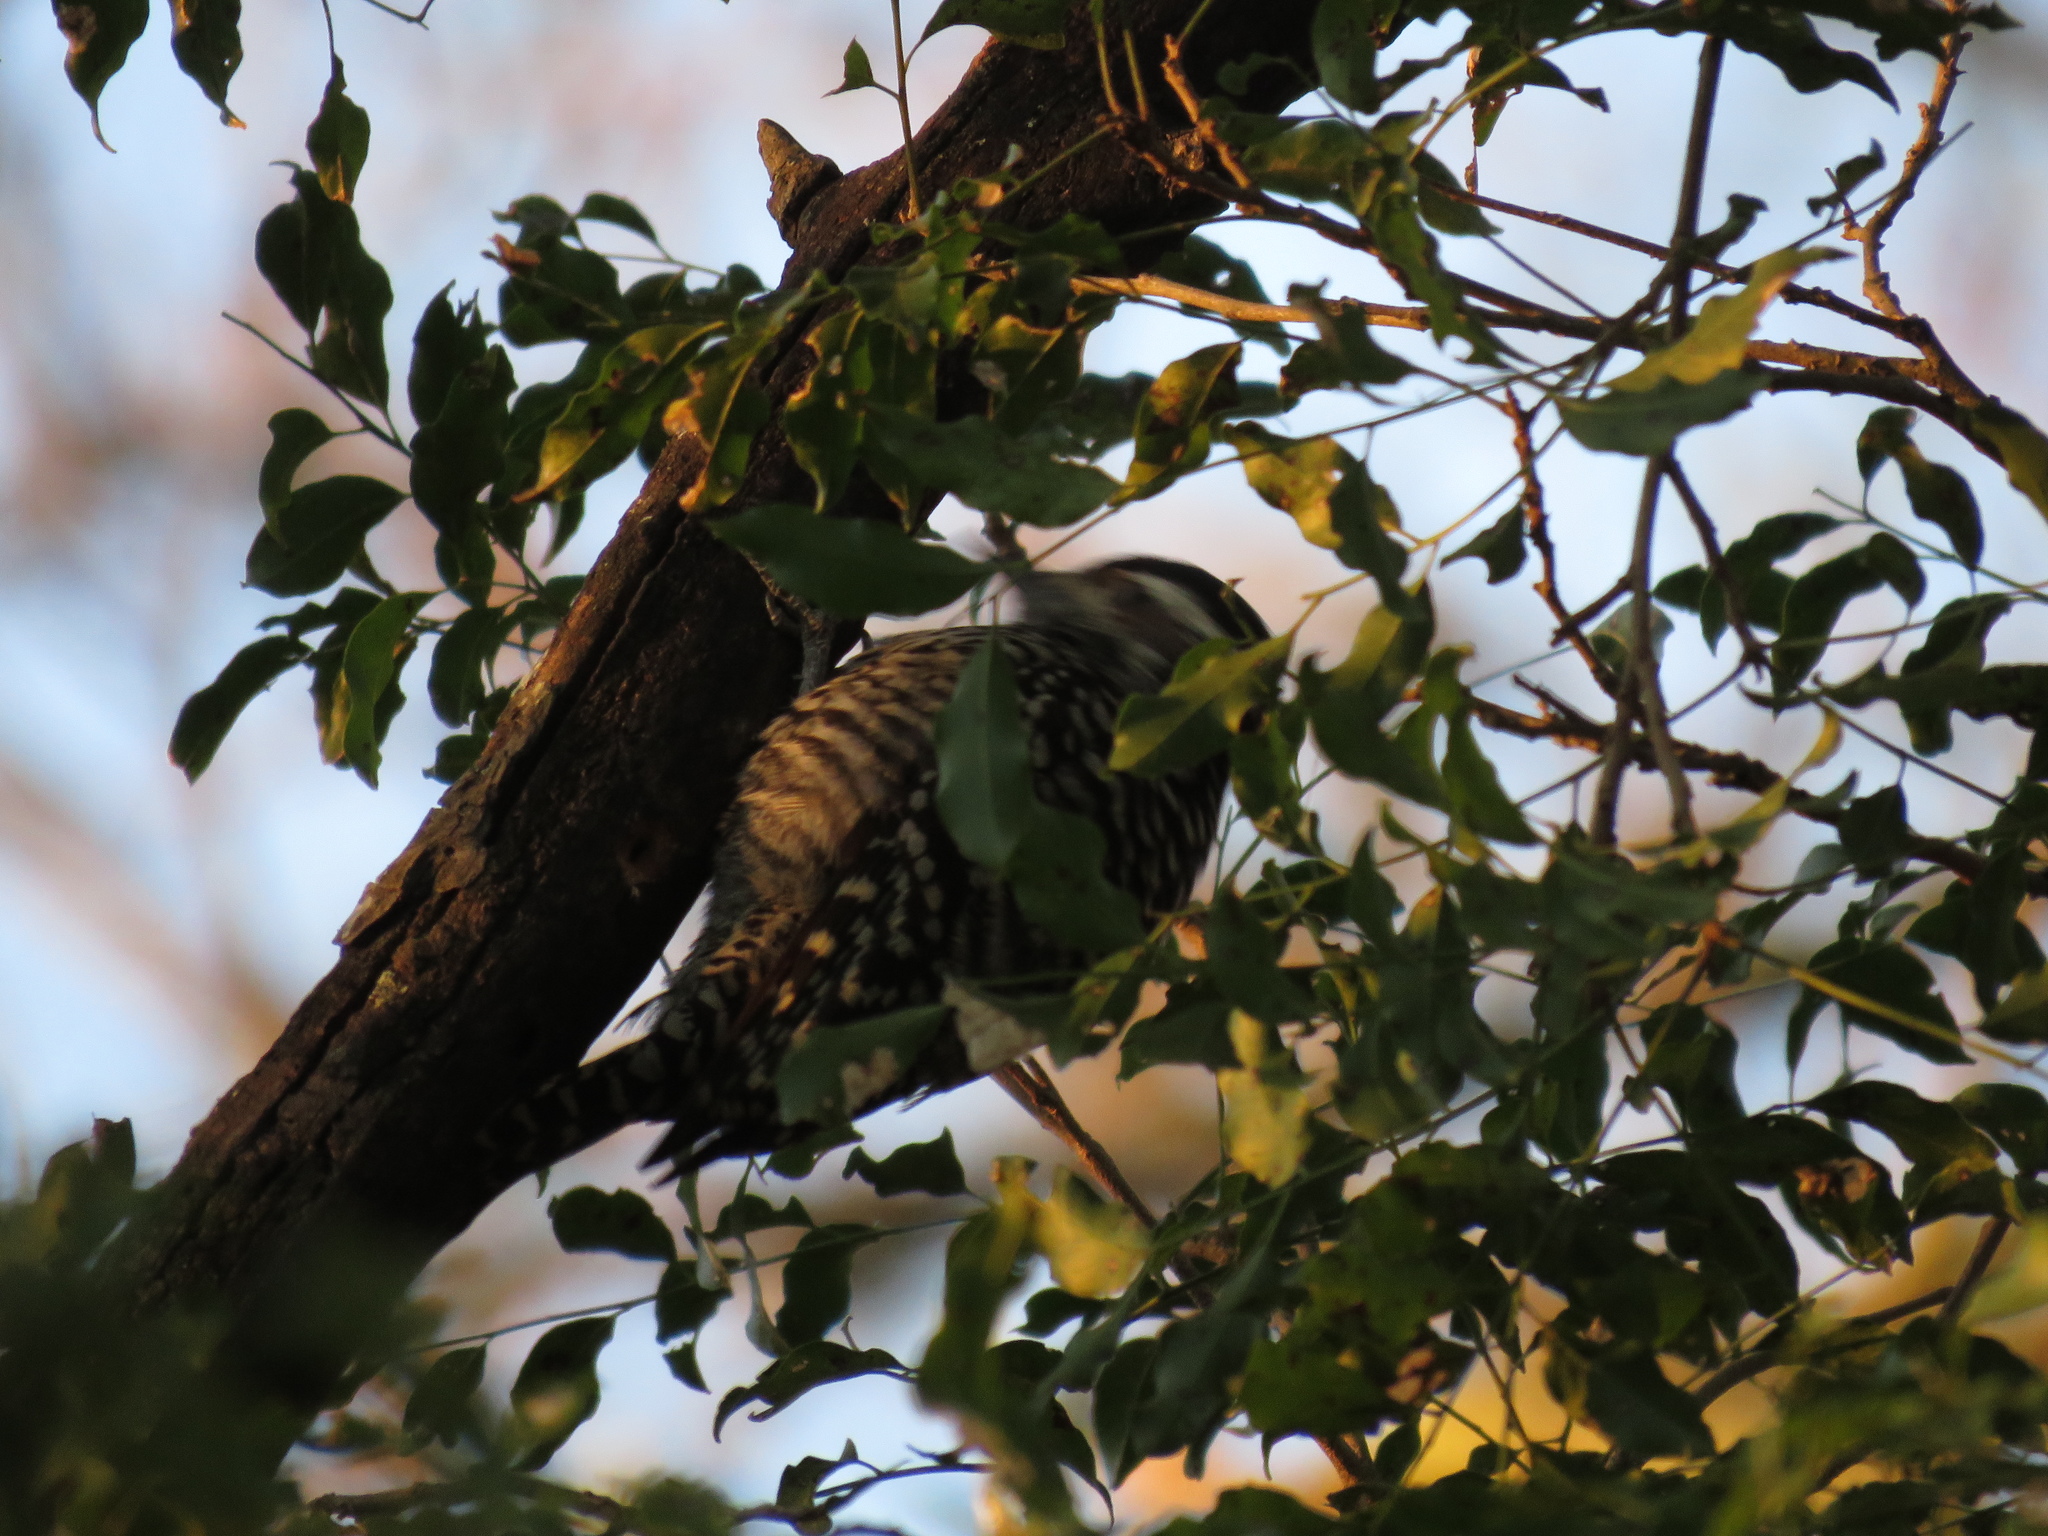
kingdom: Animalia
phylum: Chordata
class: Aves
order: Piciformes
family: Picidae
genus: Veniliornis
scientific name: Veniliornis mixtus
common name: Checkered woodpecker
